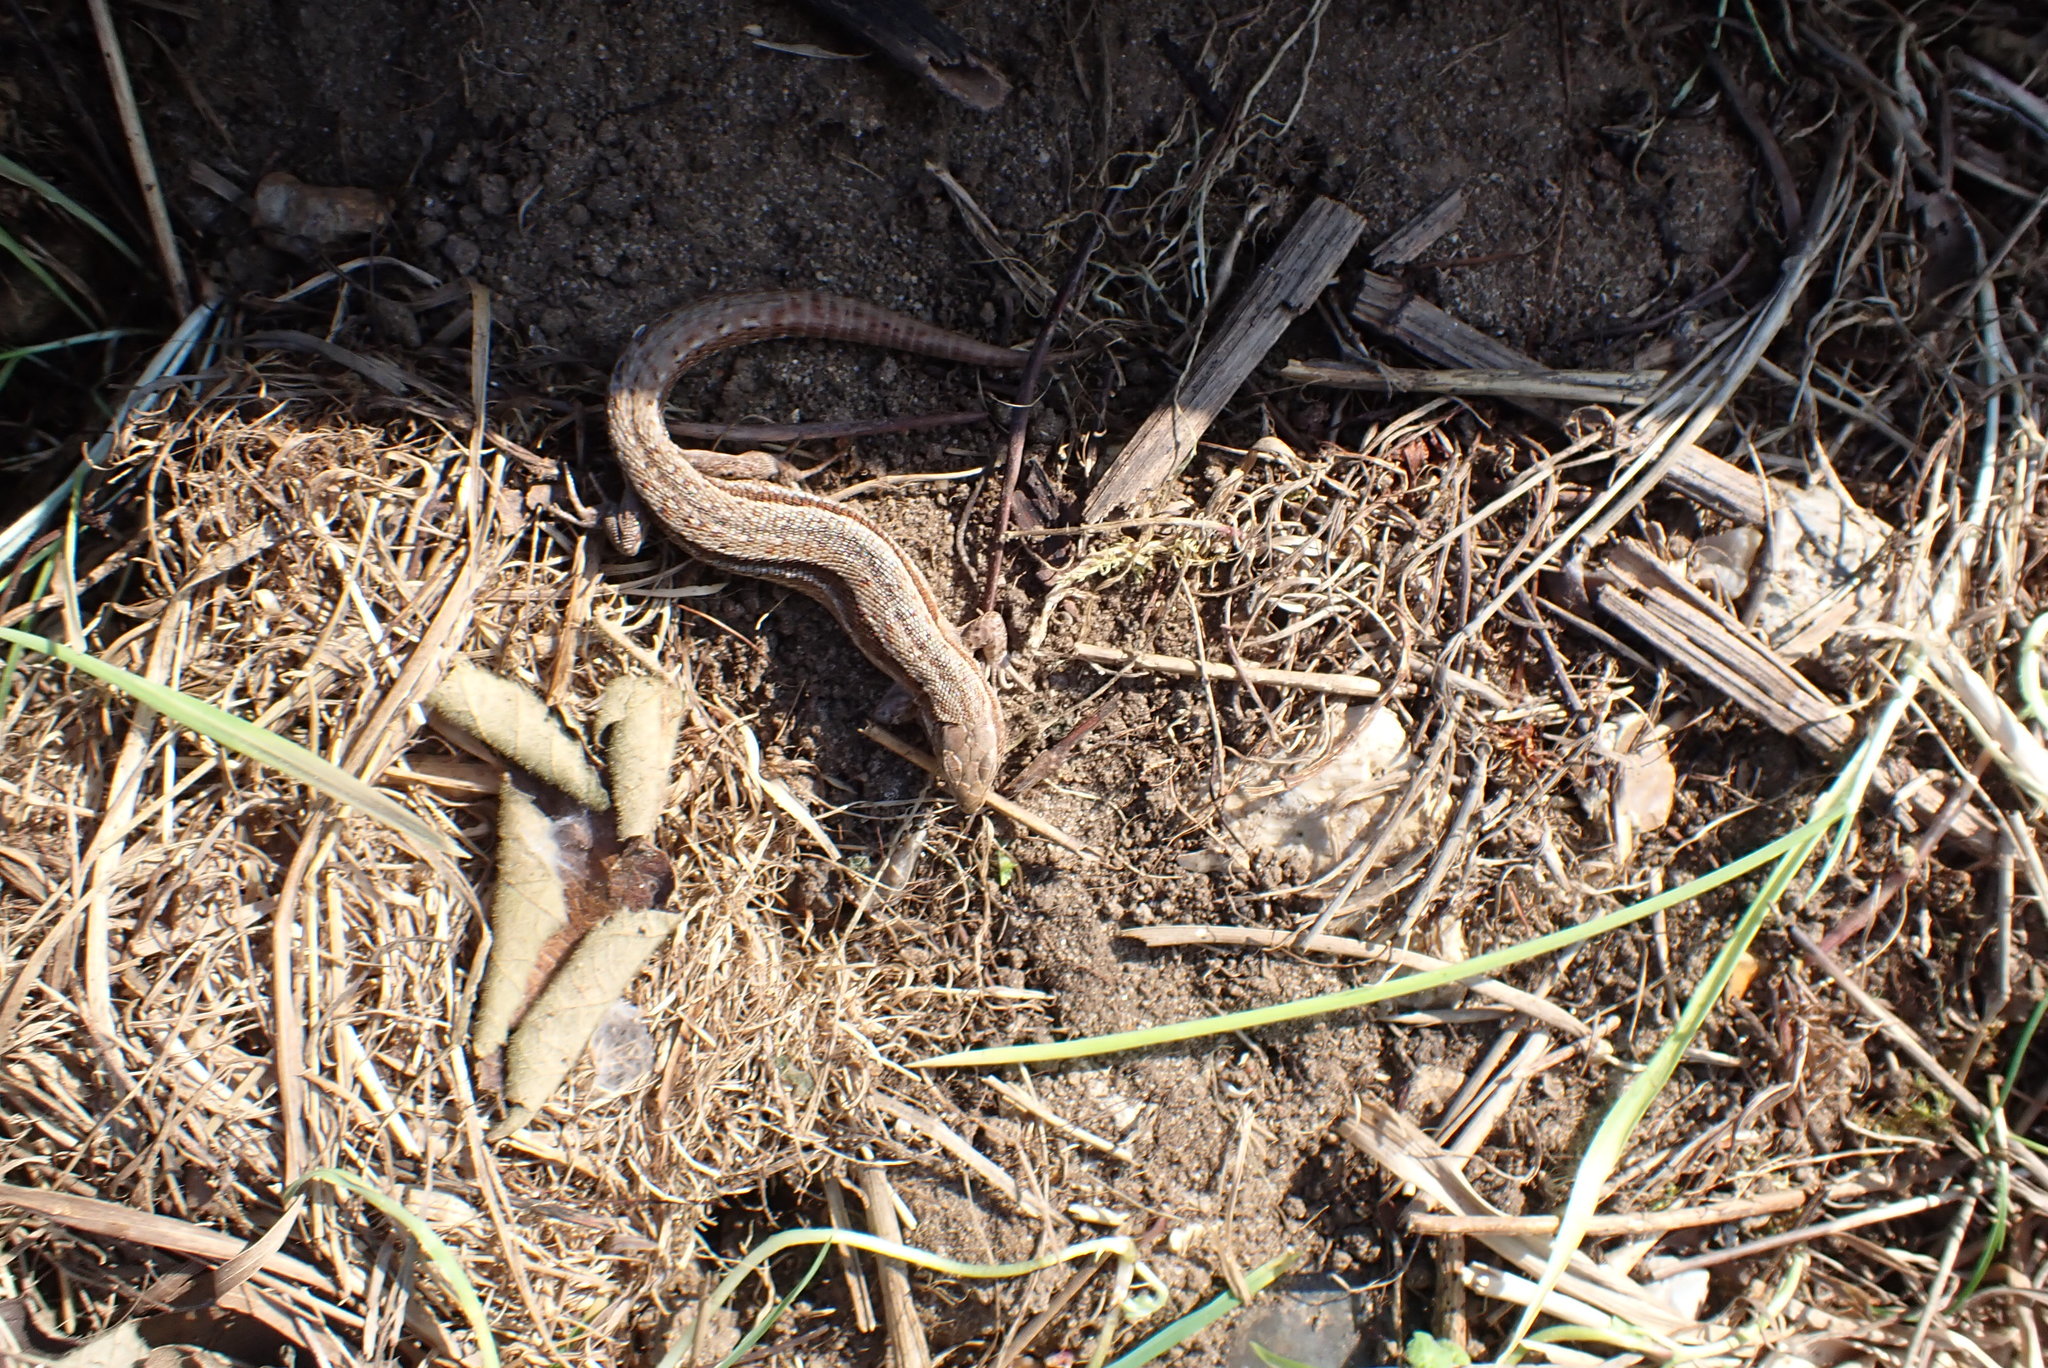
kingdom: Animalia
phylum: Chordata
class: Squamata
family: Lacertidae
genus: Zootoca
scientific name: Zootoca vivipara
